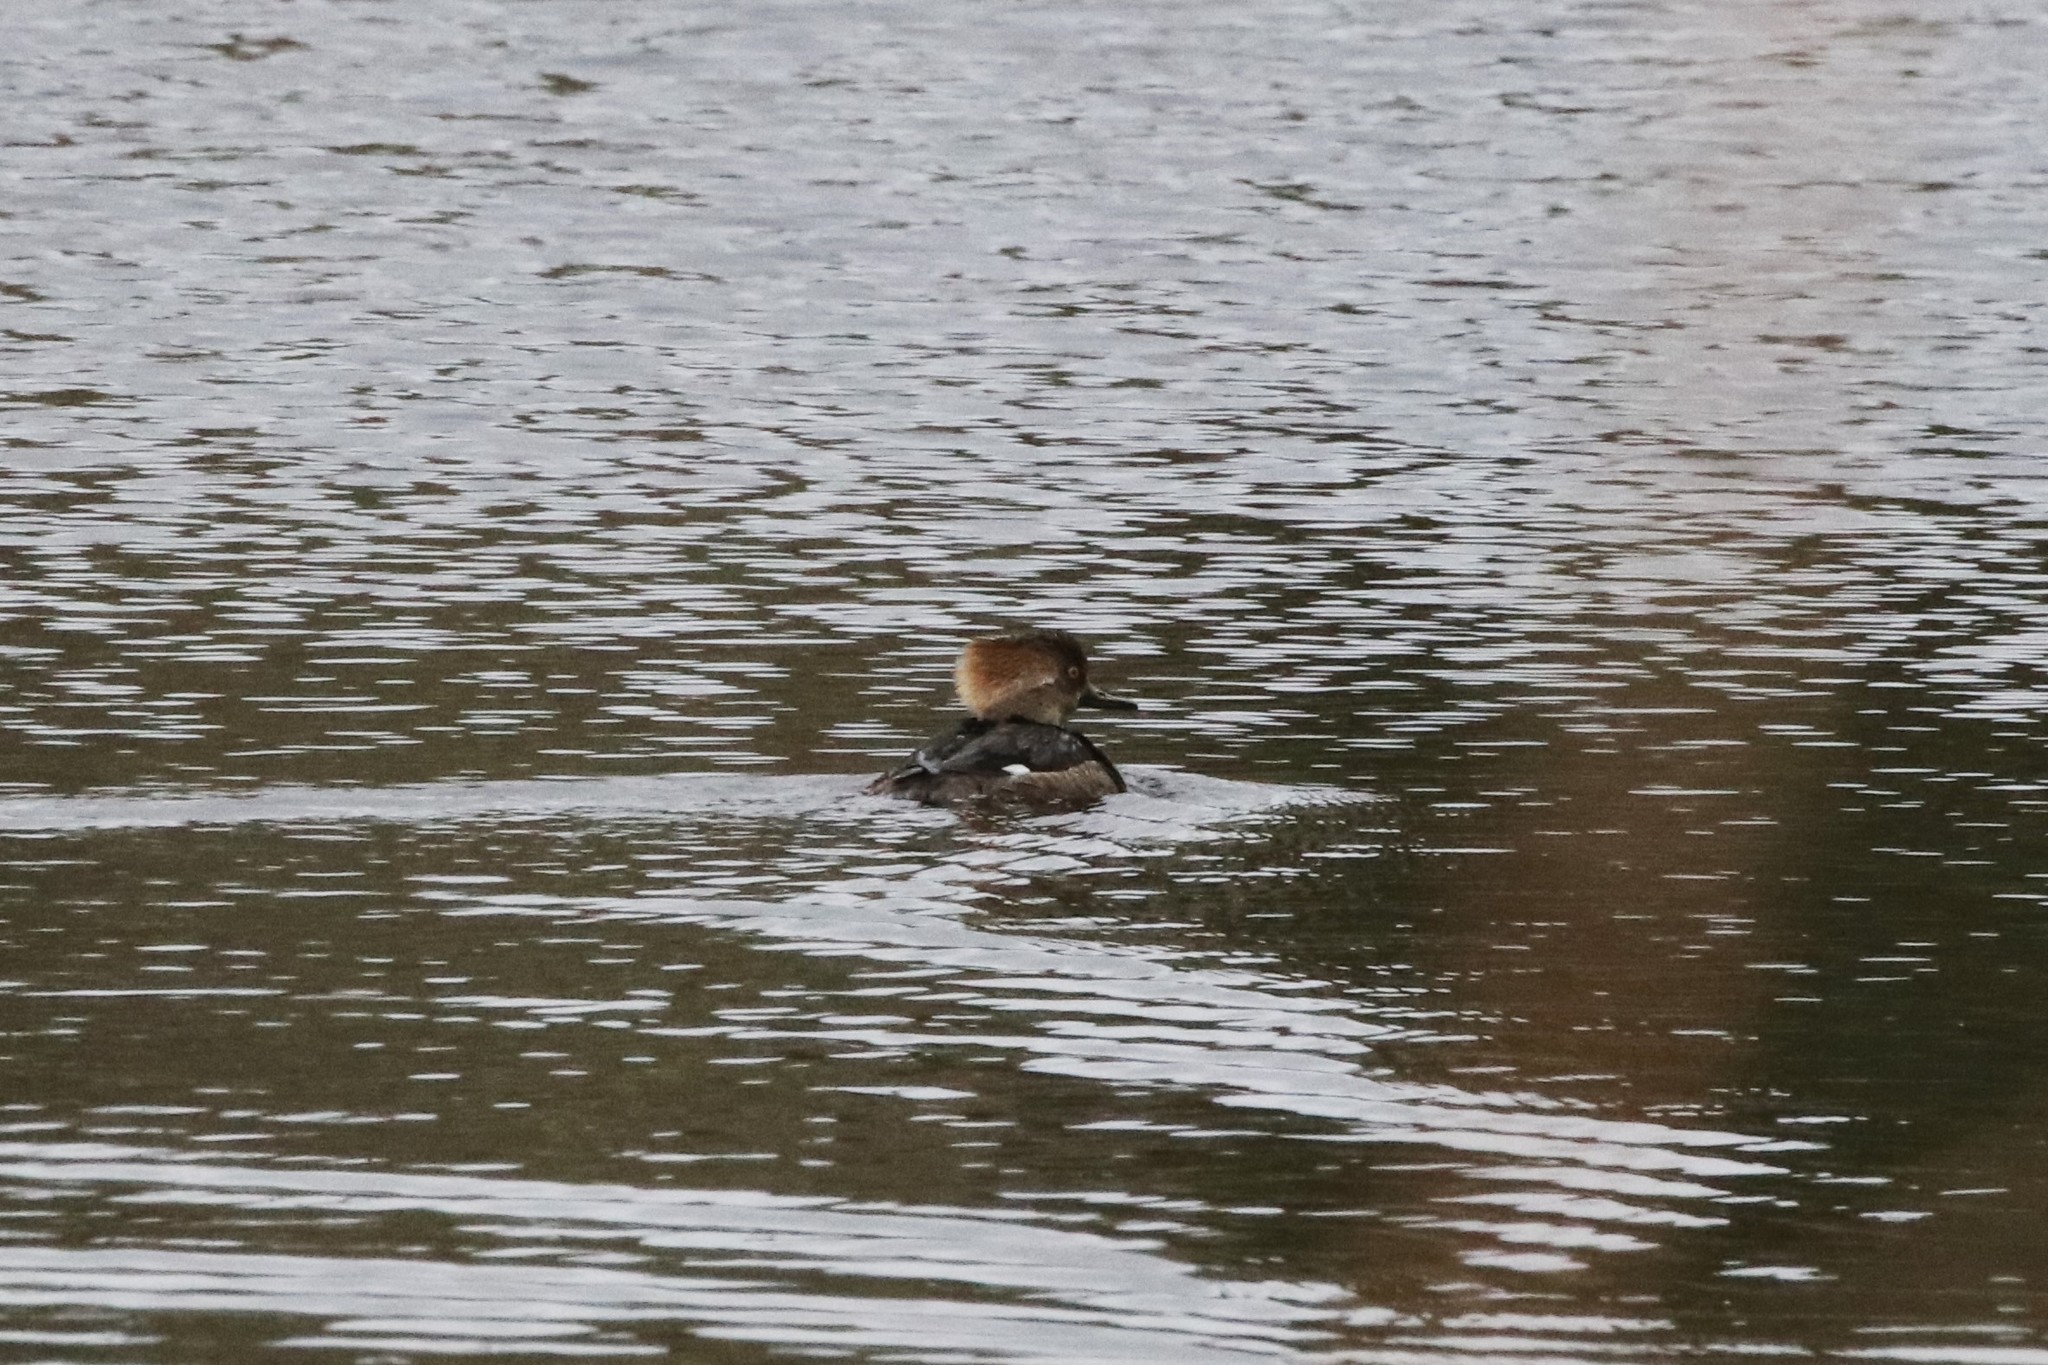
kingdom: Animalia
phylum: Chordata
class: Aves
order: Anseriformes
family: Anatidae
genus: Lophodytes
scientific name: Lophodytes cucullatus
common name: Hooded merganser
